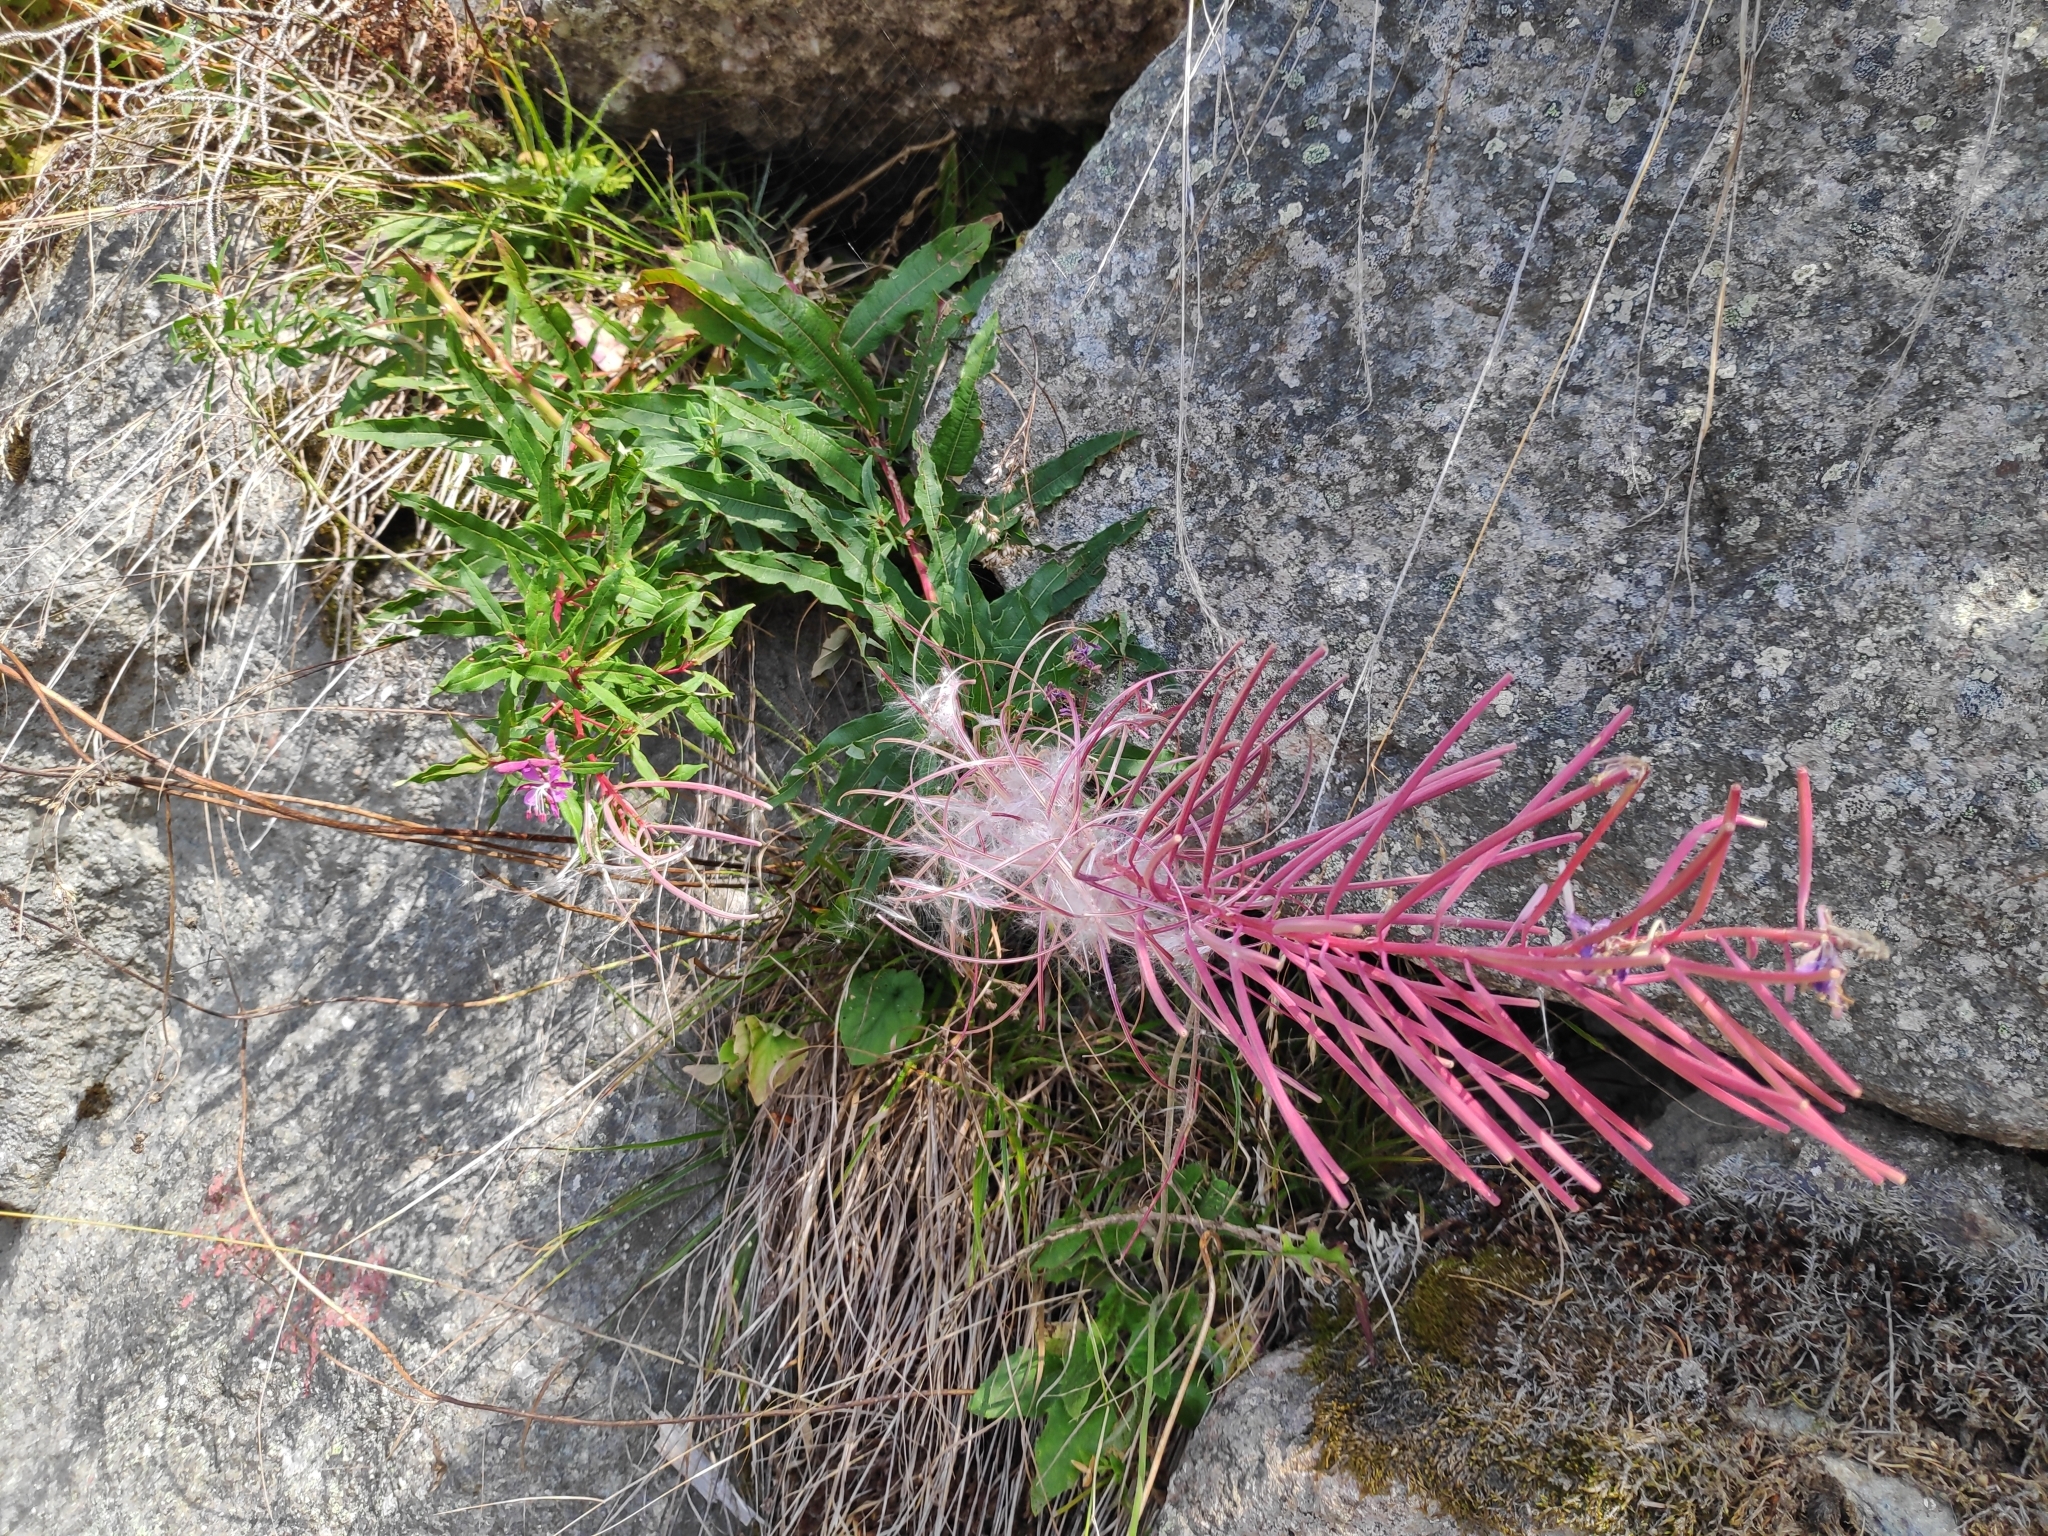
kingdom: Plantae
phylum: Tracheophyta
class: Magnoliopsida
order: Myrtales
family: Onagraceae
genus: Chamaenerion
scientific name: Chamaenerion angustifolium
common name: Fireweed
